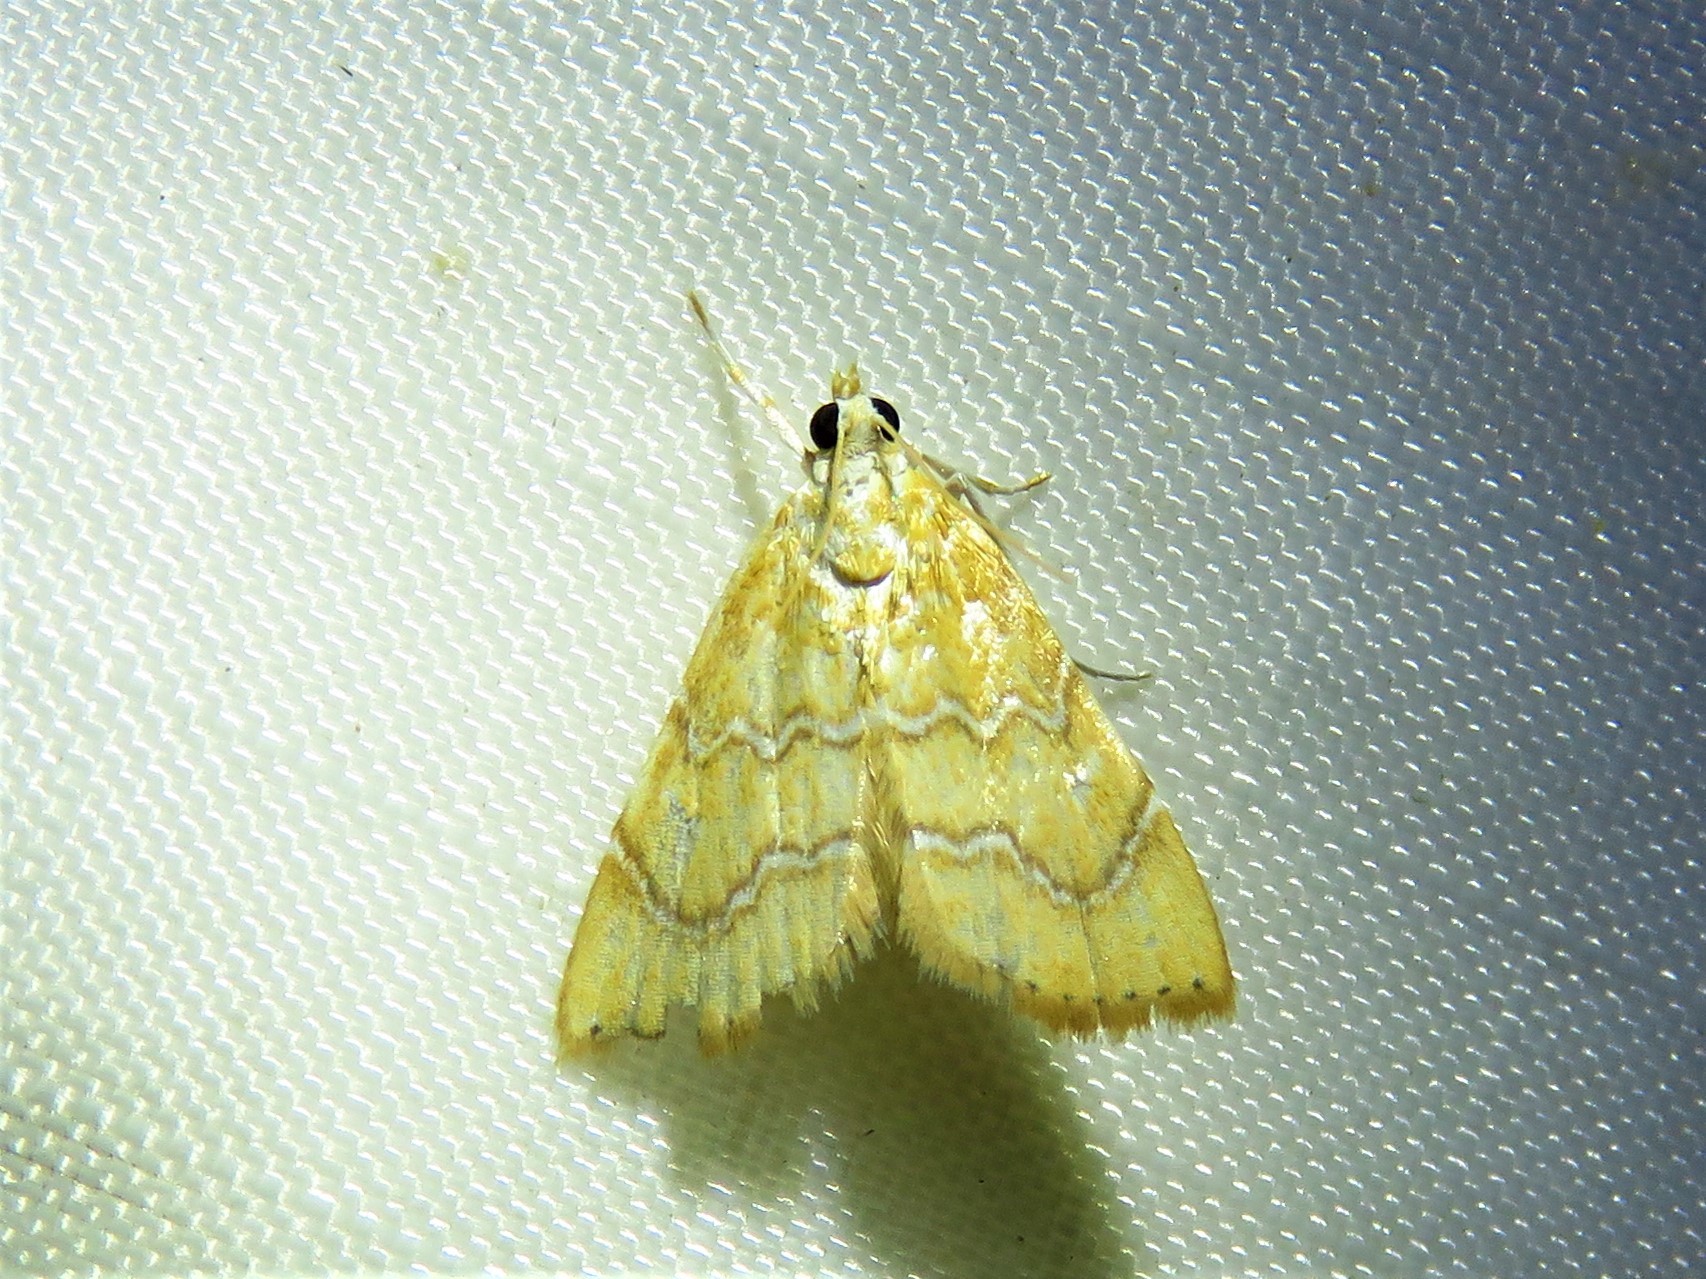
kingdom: Animalia
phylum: Arthropoda
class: Insecta
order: Lepidoptera
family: Crambidae
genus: Glaphyria
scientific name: Glaphyria sesquistrialis
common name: White-roped glaphyria
